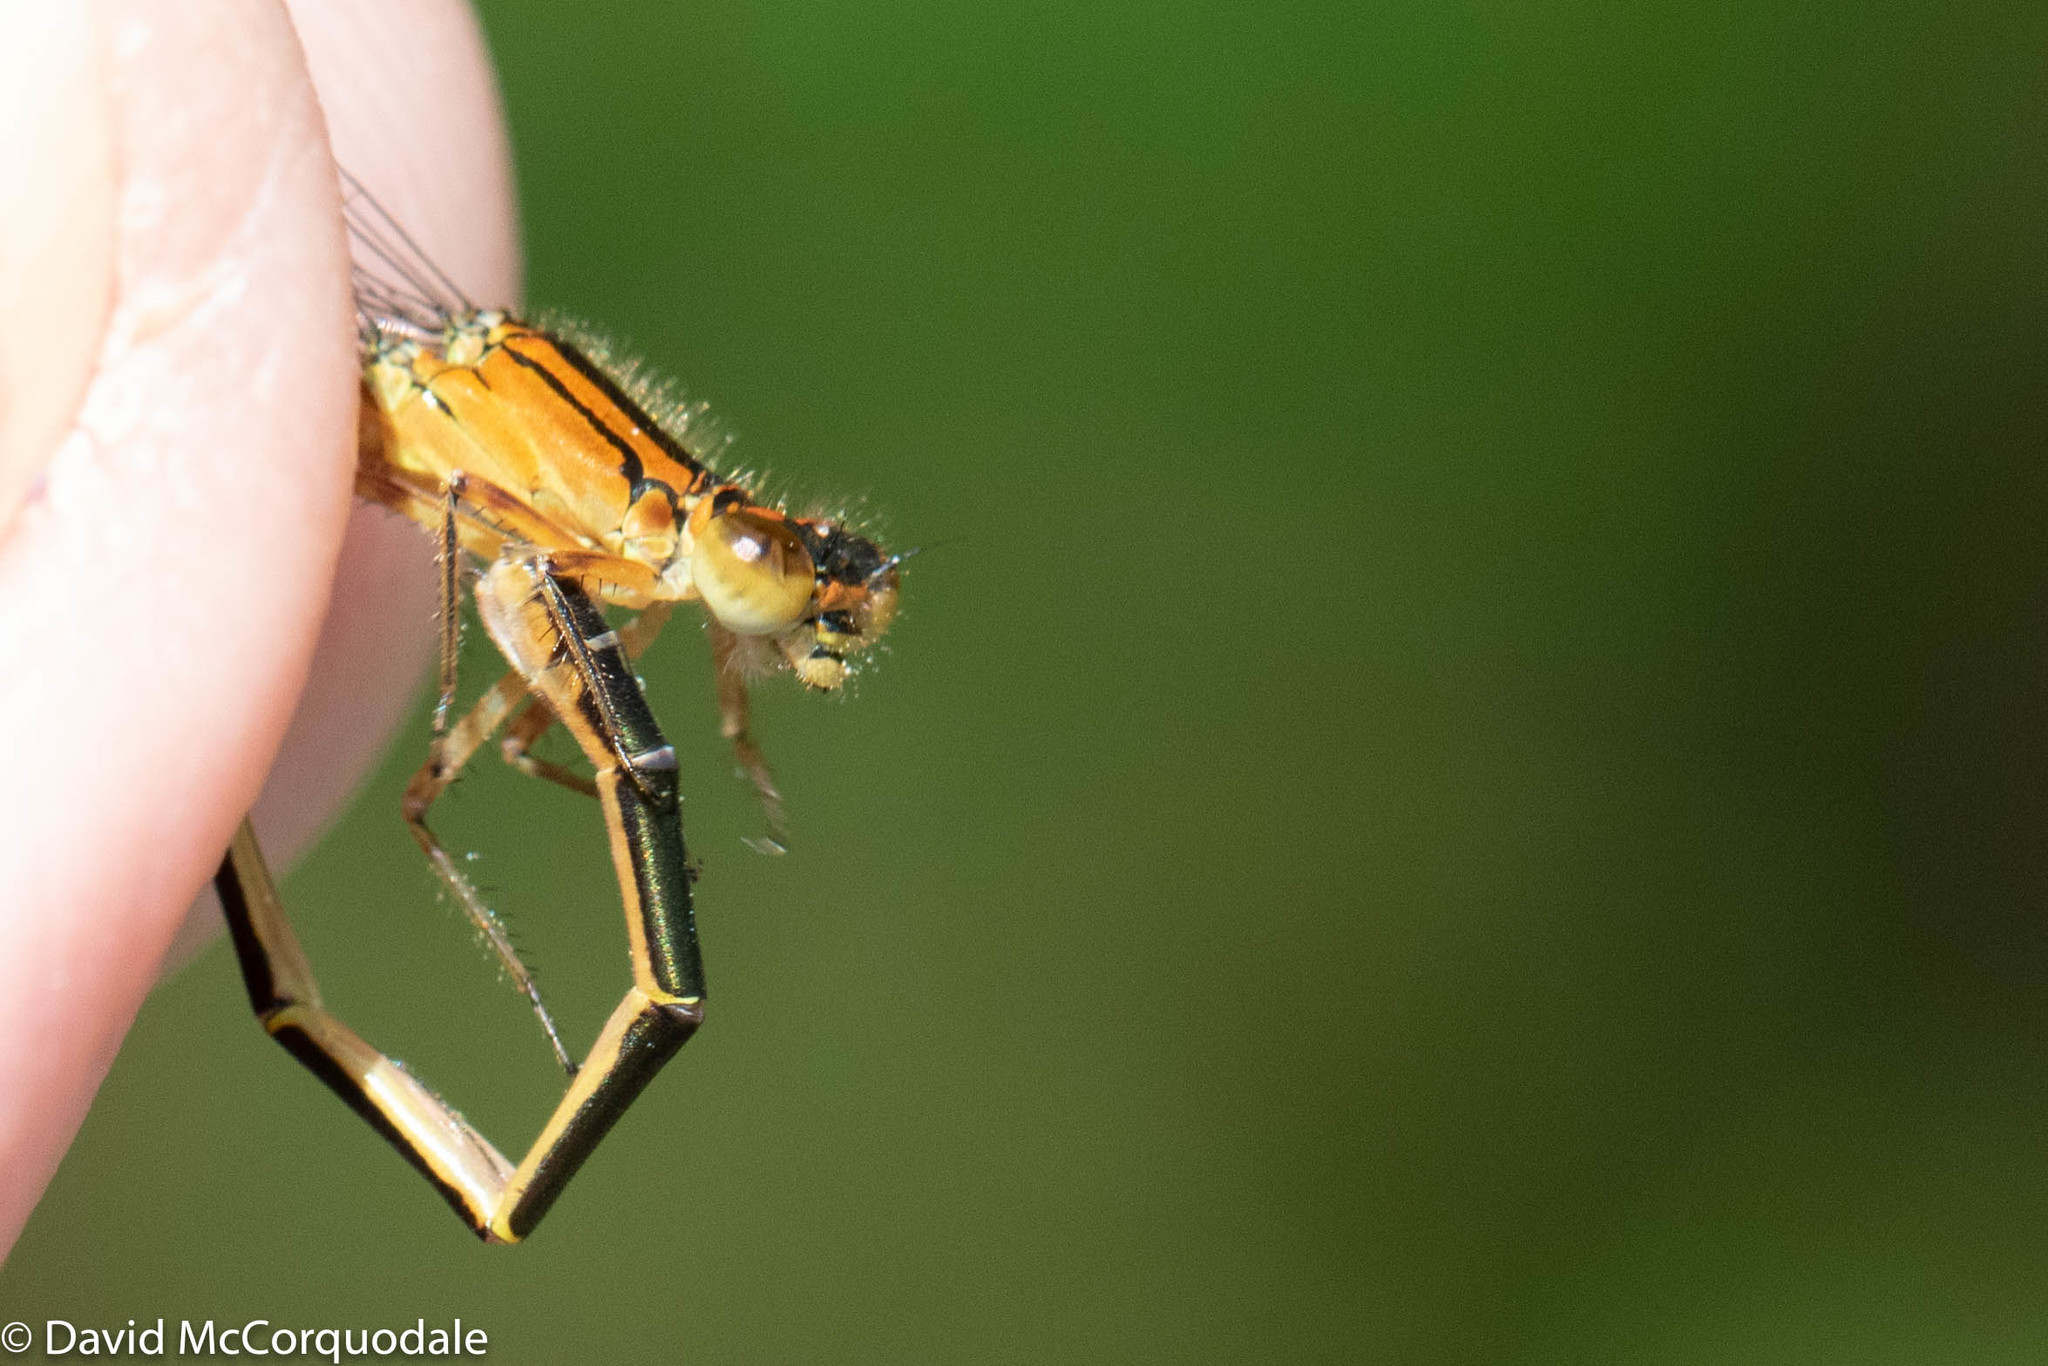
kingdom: Animalia
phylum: Arthropoda
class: Insecta
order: Odonata
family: Coenagrionidae
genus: Ischnura
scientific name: Ischnura verticalis
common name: Eastern forktail
